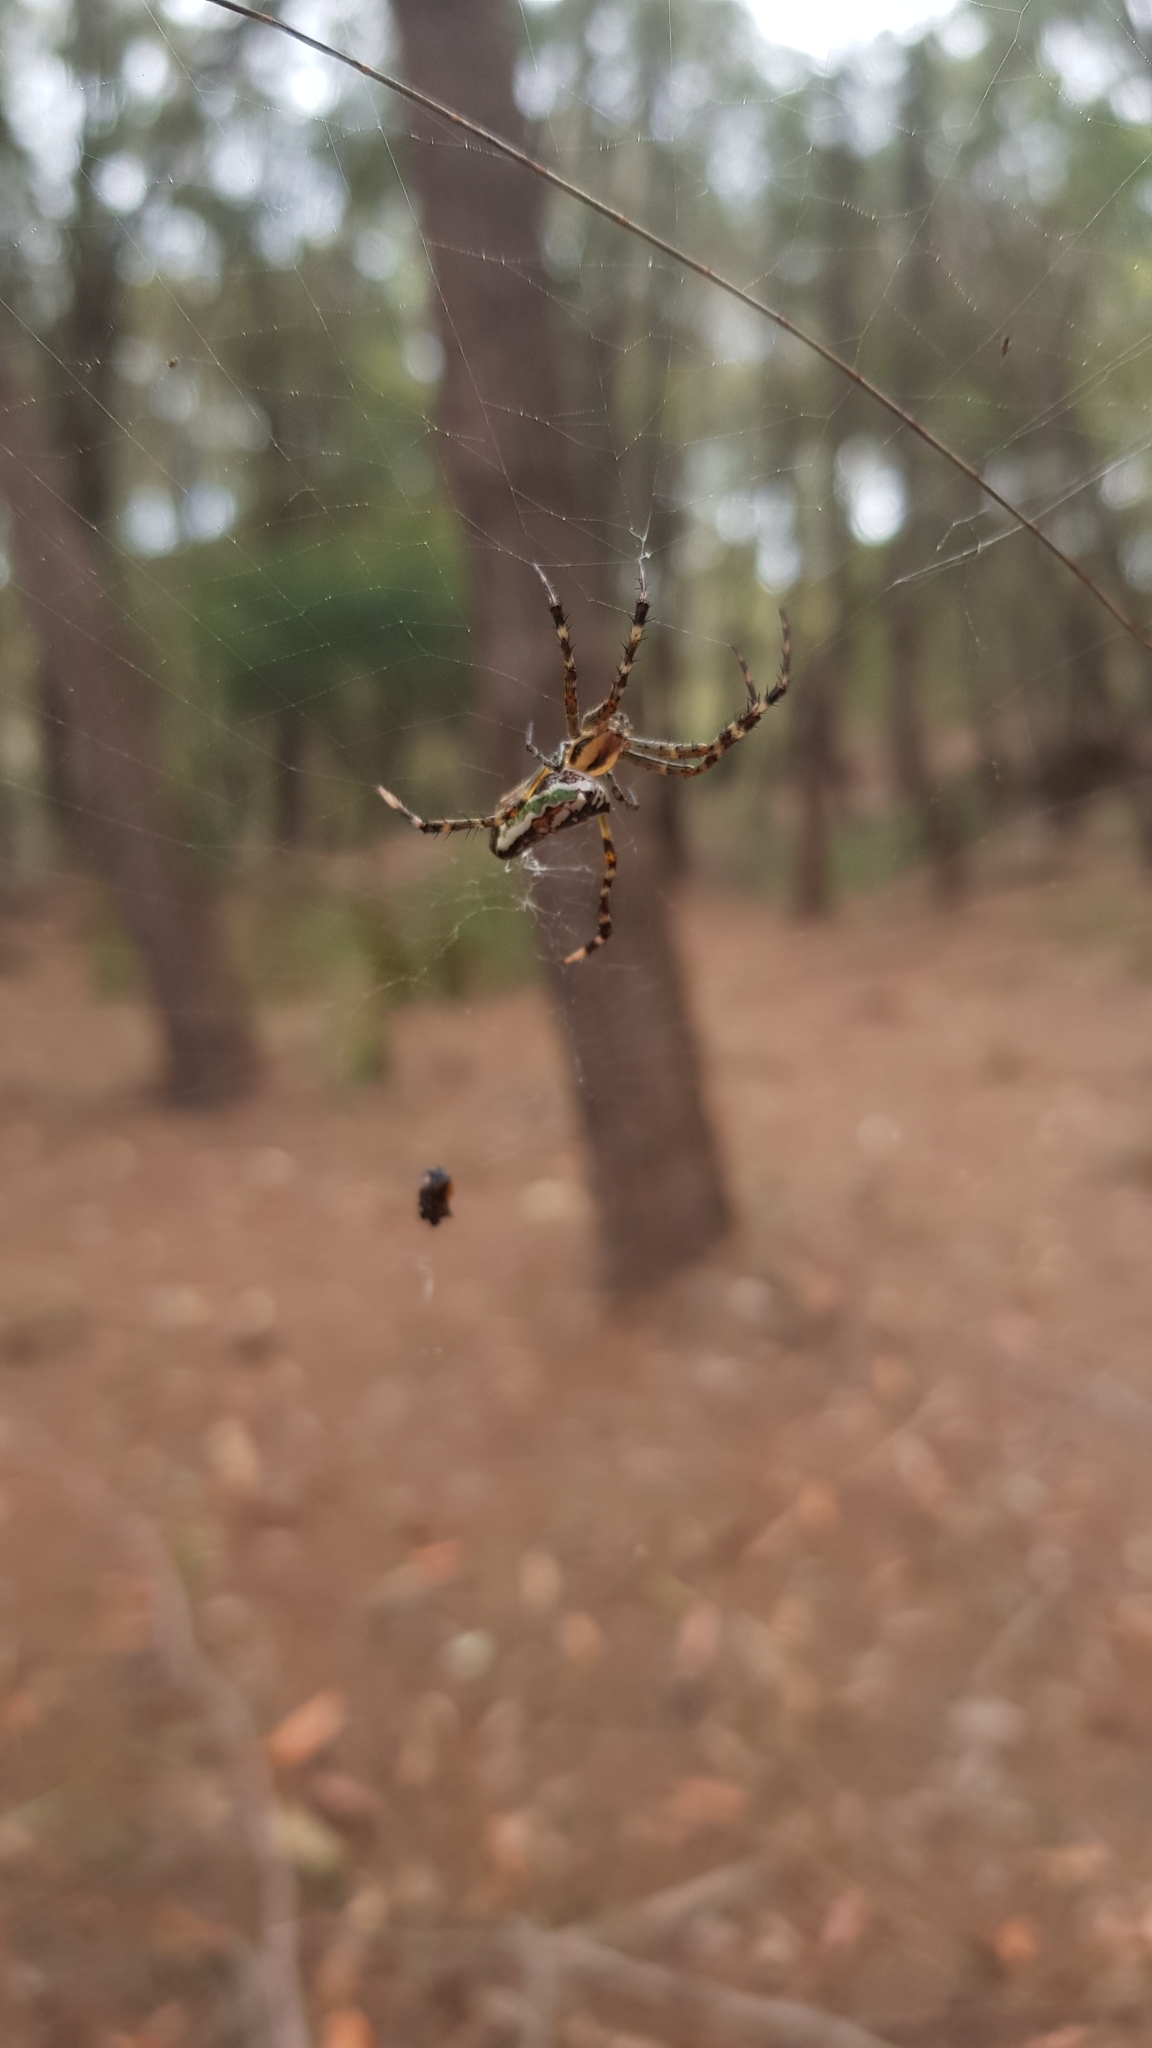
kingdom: Animalia
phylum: Arthropoda
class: Arachnida
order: Araneae
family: Araneidae
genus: Plebs
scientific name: Plebs bradleyi
